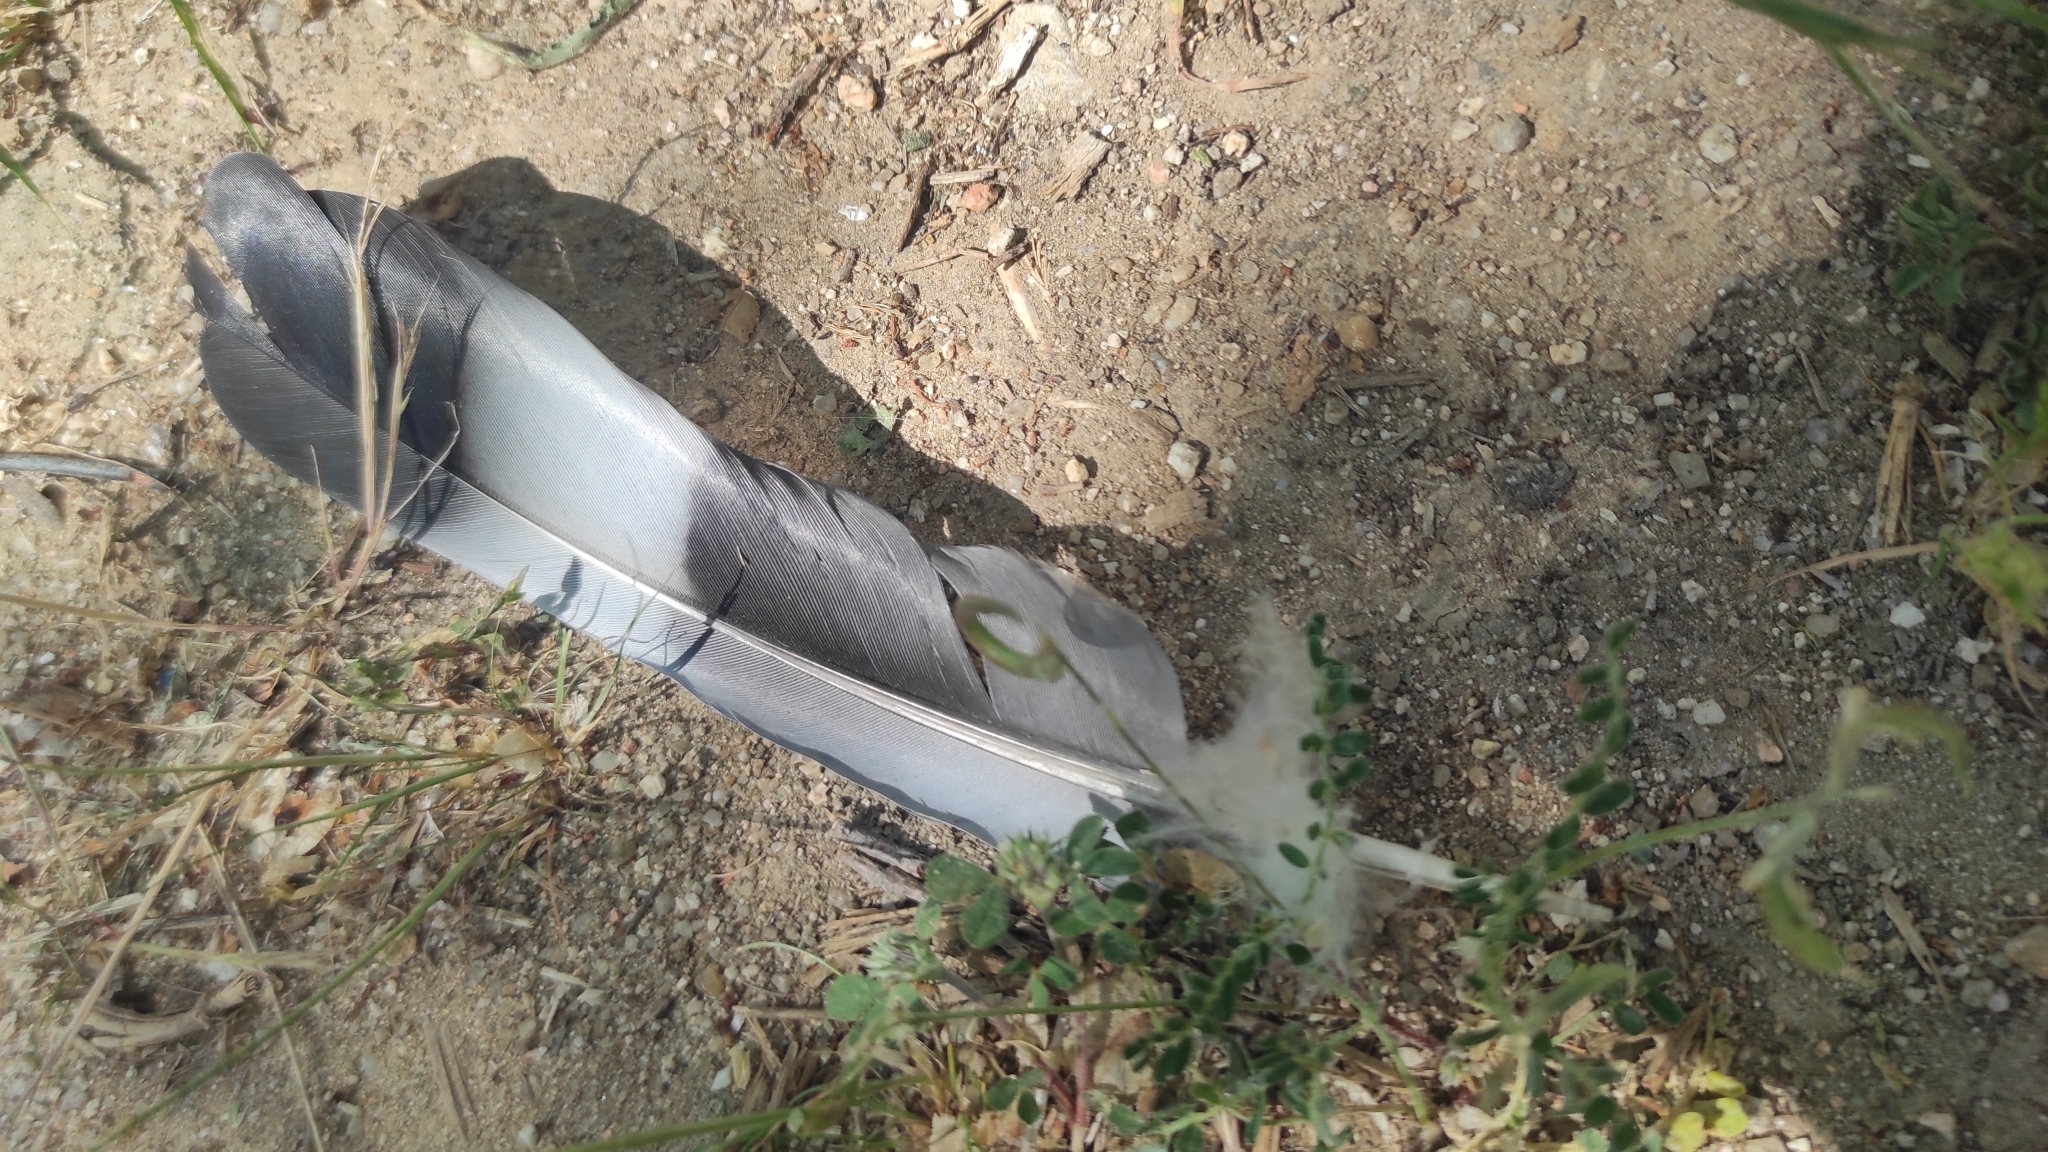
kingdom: Animalia
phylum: Chordata
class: Aves
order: Columbiformes
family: Columbidae
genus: Columba
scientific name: Columba palumbus
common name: Common wood pigeon
